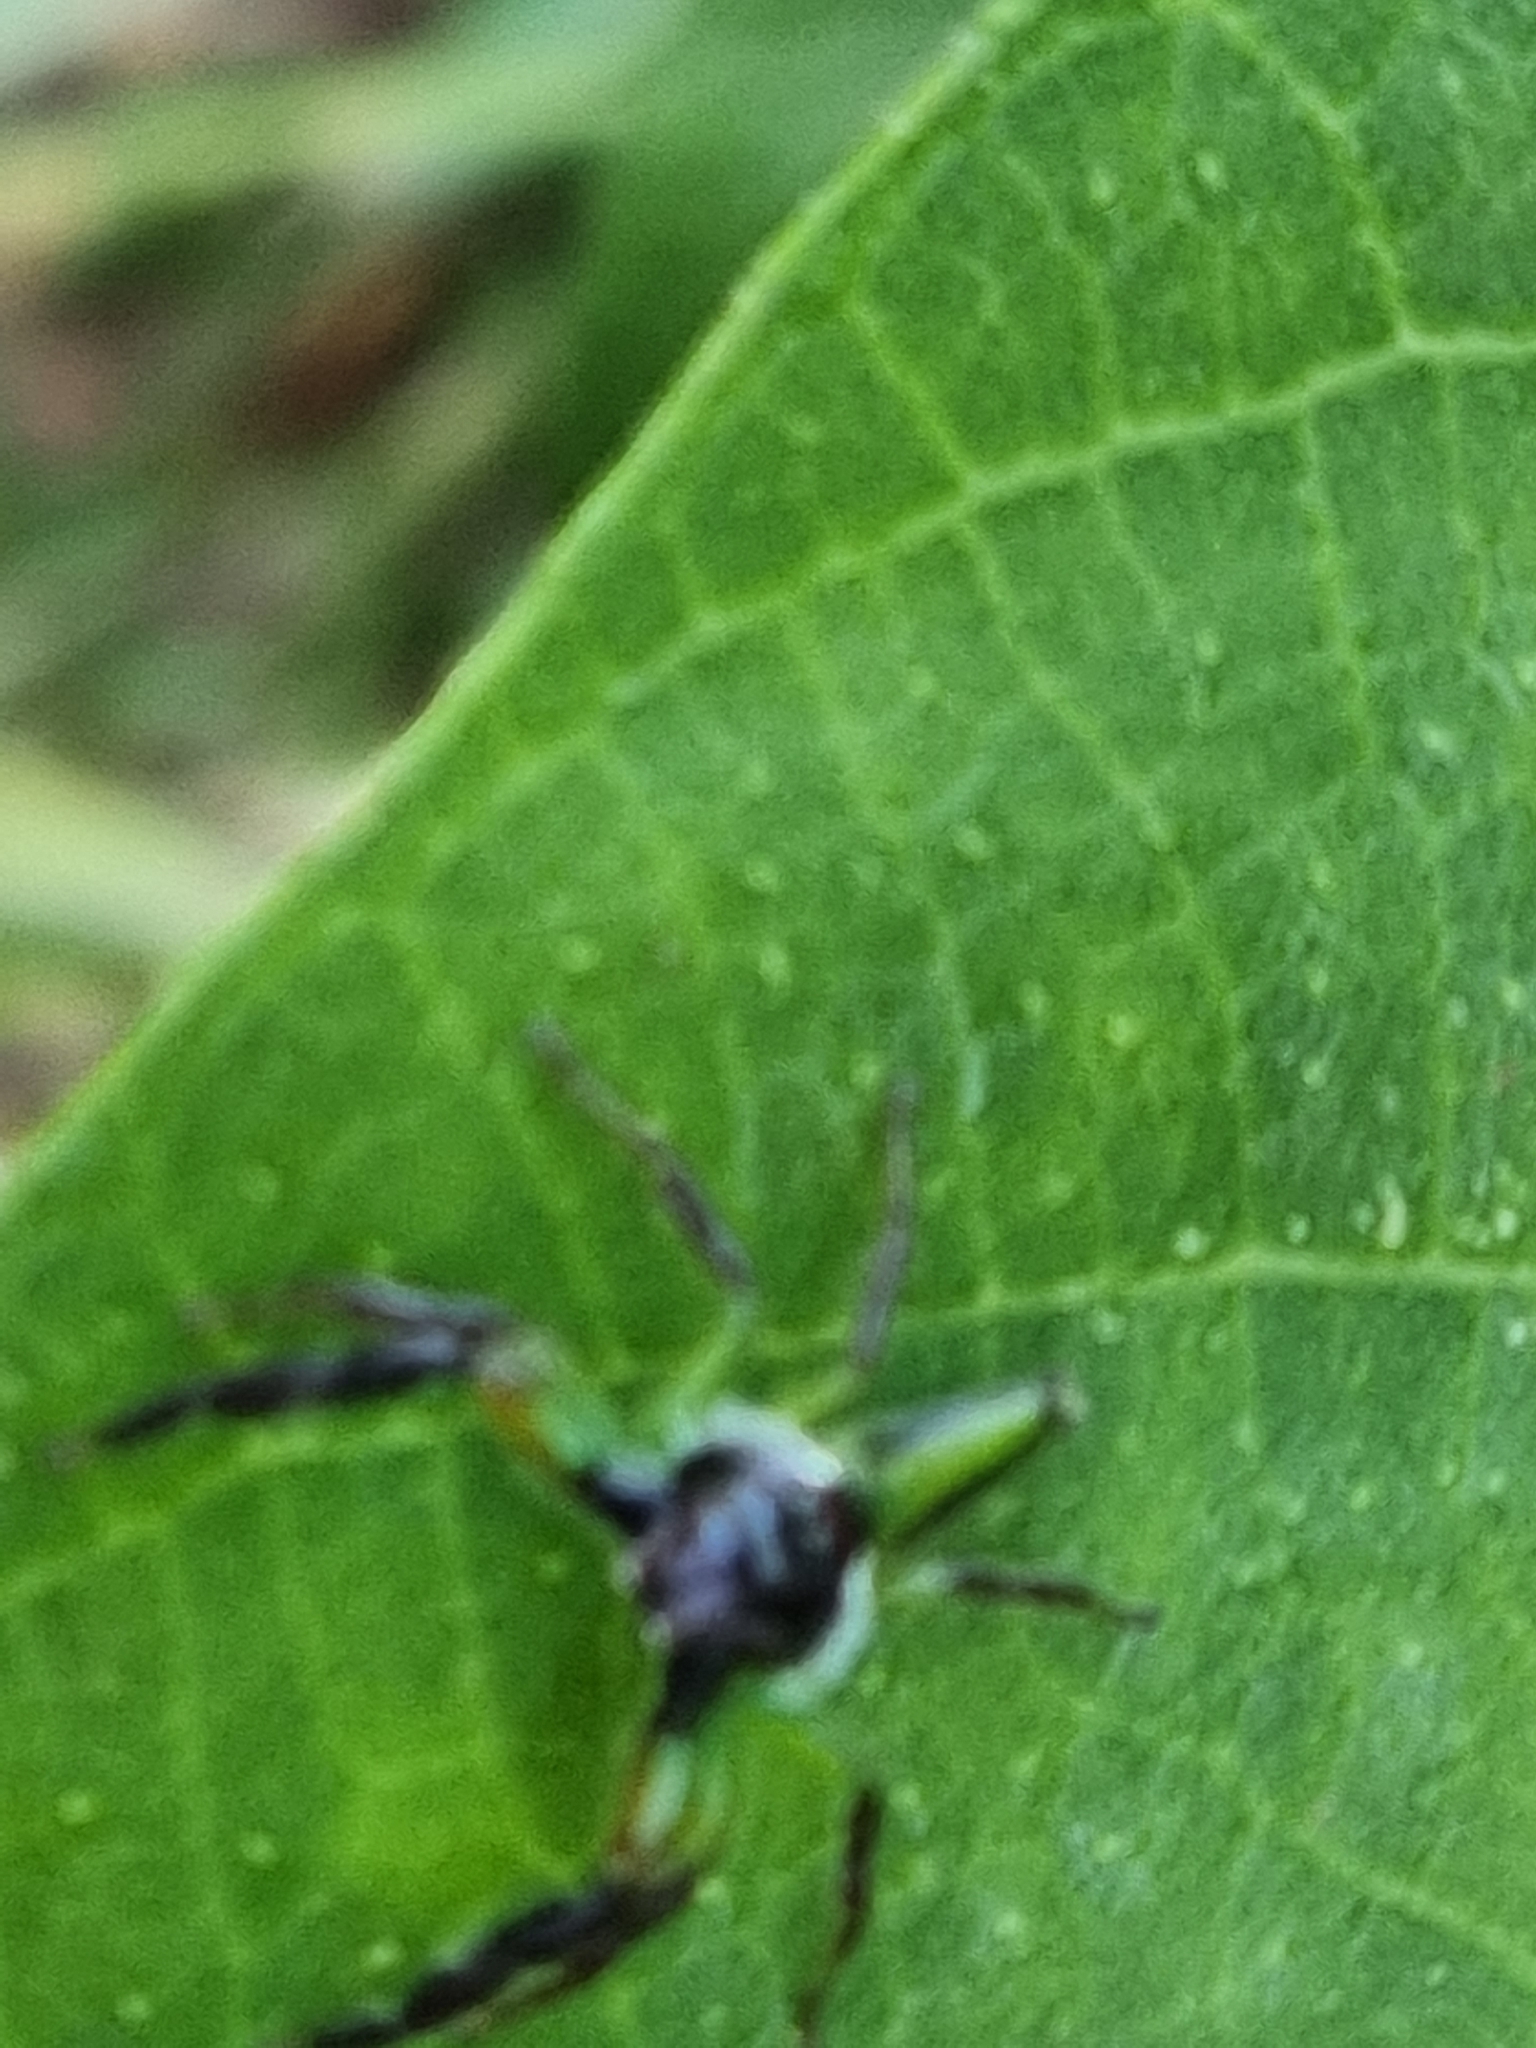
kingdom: Animalia
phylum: Arthropoda
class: Arachnida
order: Araneae
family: Salticidae
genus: Mopsus
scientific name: Mopsus mormon
